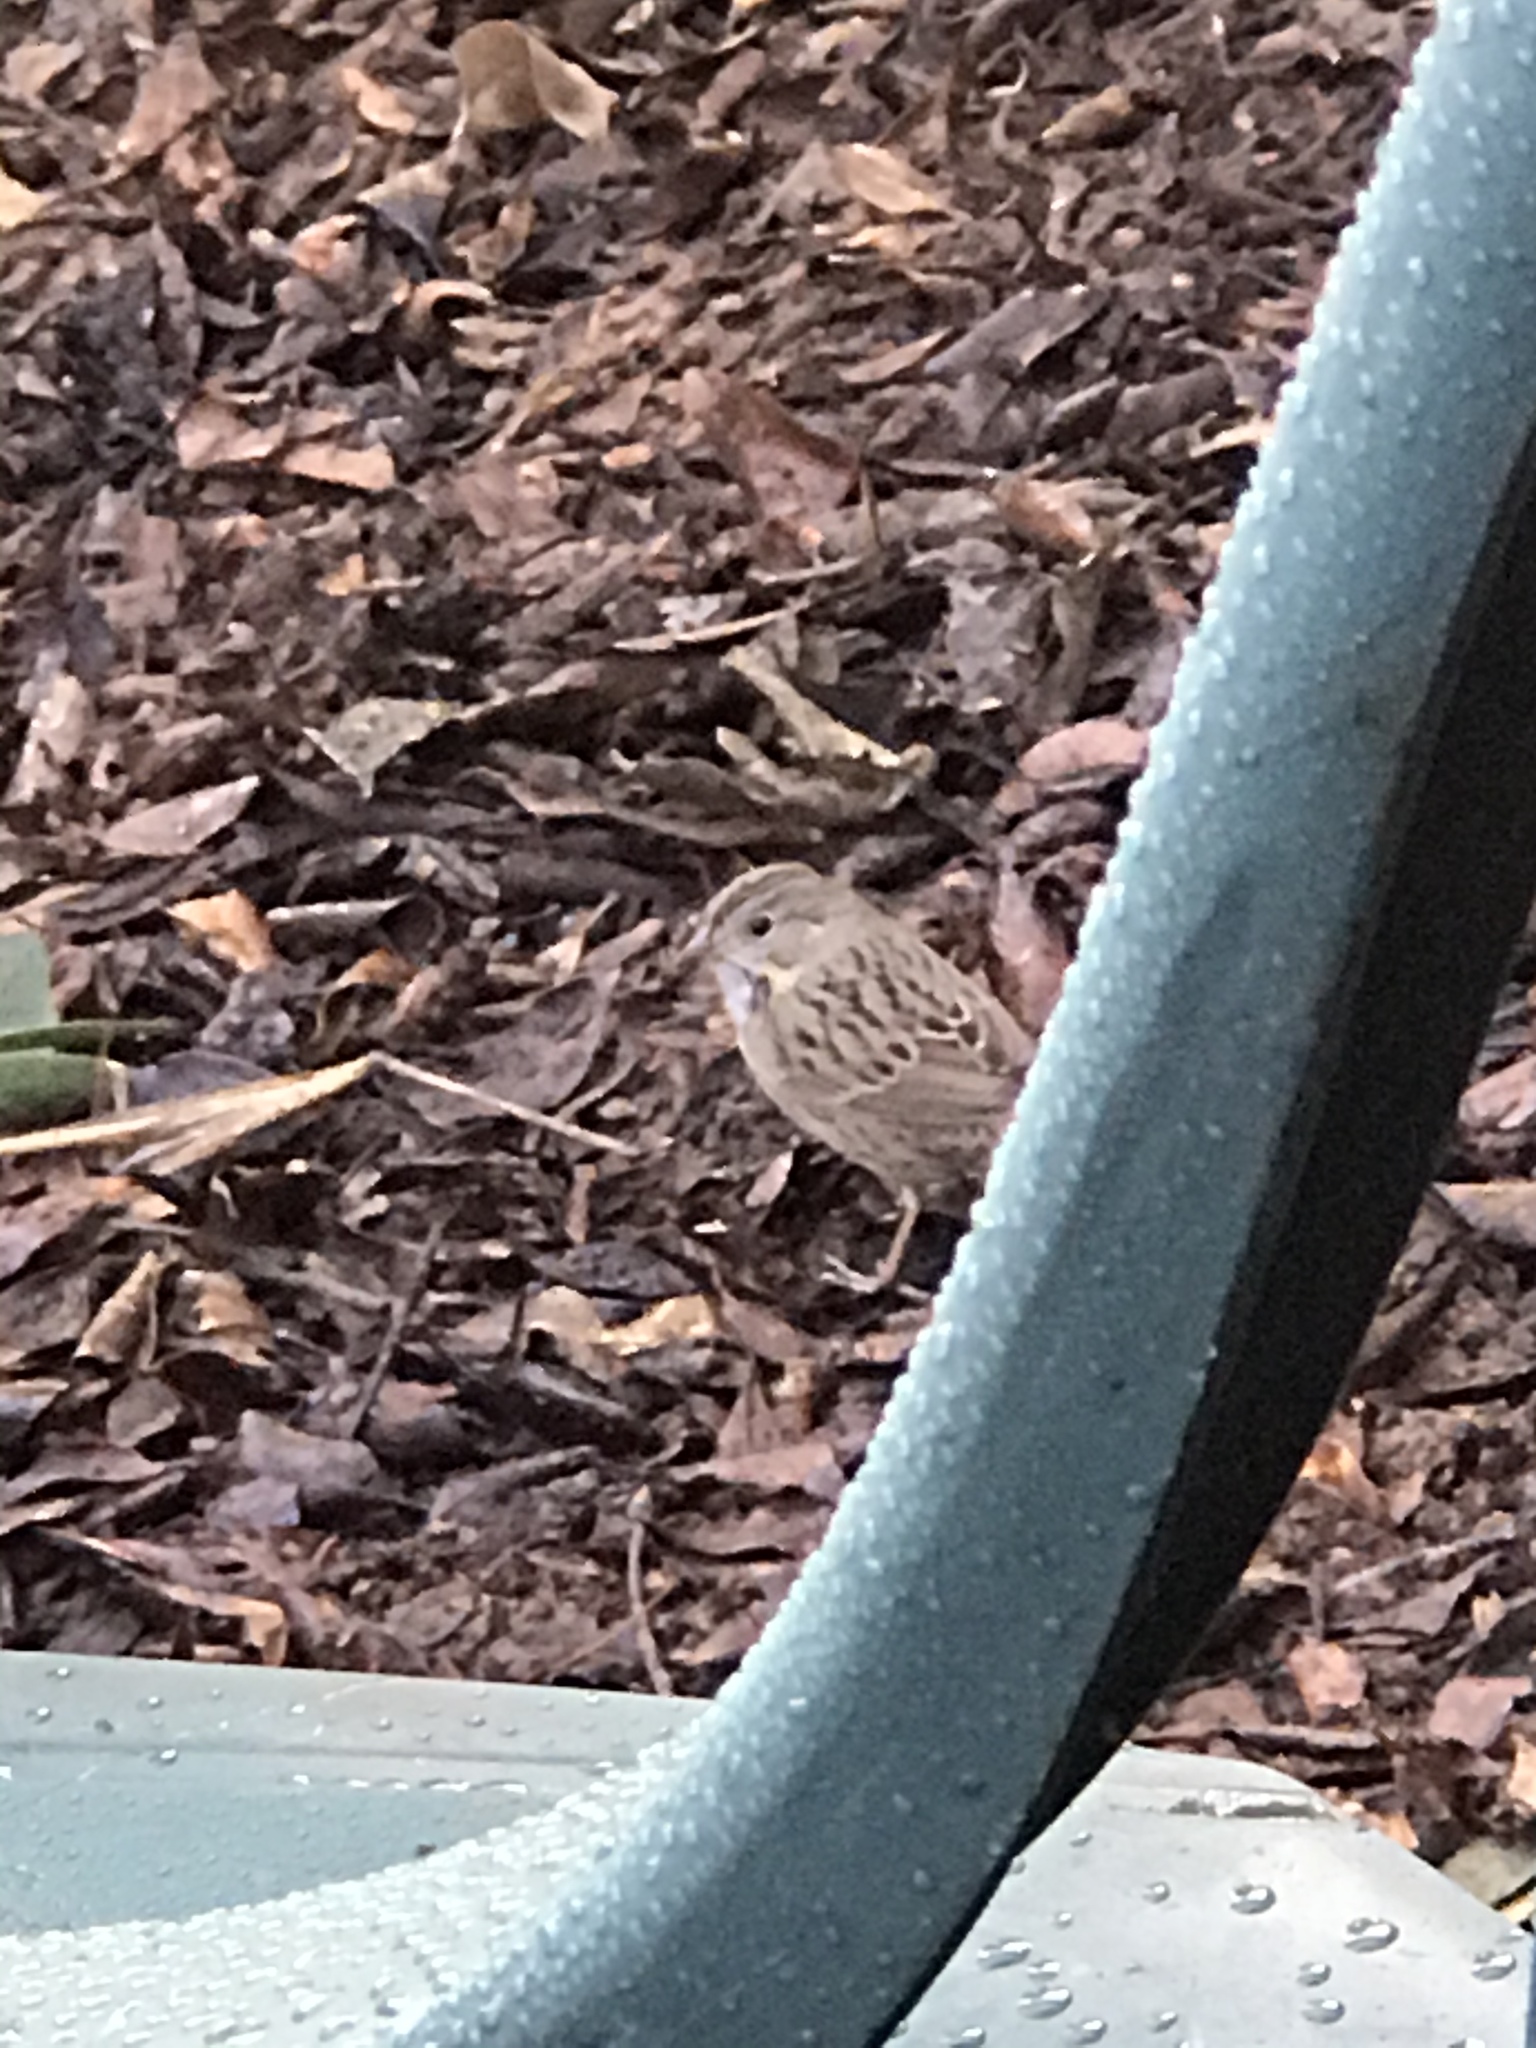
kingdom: Animalia
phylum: Chordata
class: Aves
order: Passeriformes
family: Passerellidae
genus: Melospiza
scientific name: Melospiza lincolnii
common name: Lincoln's sparrow
